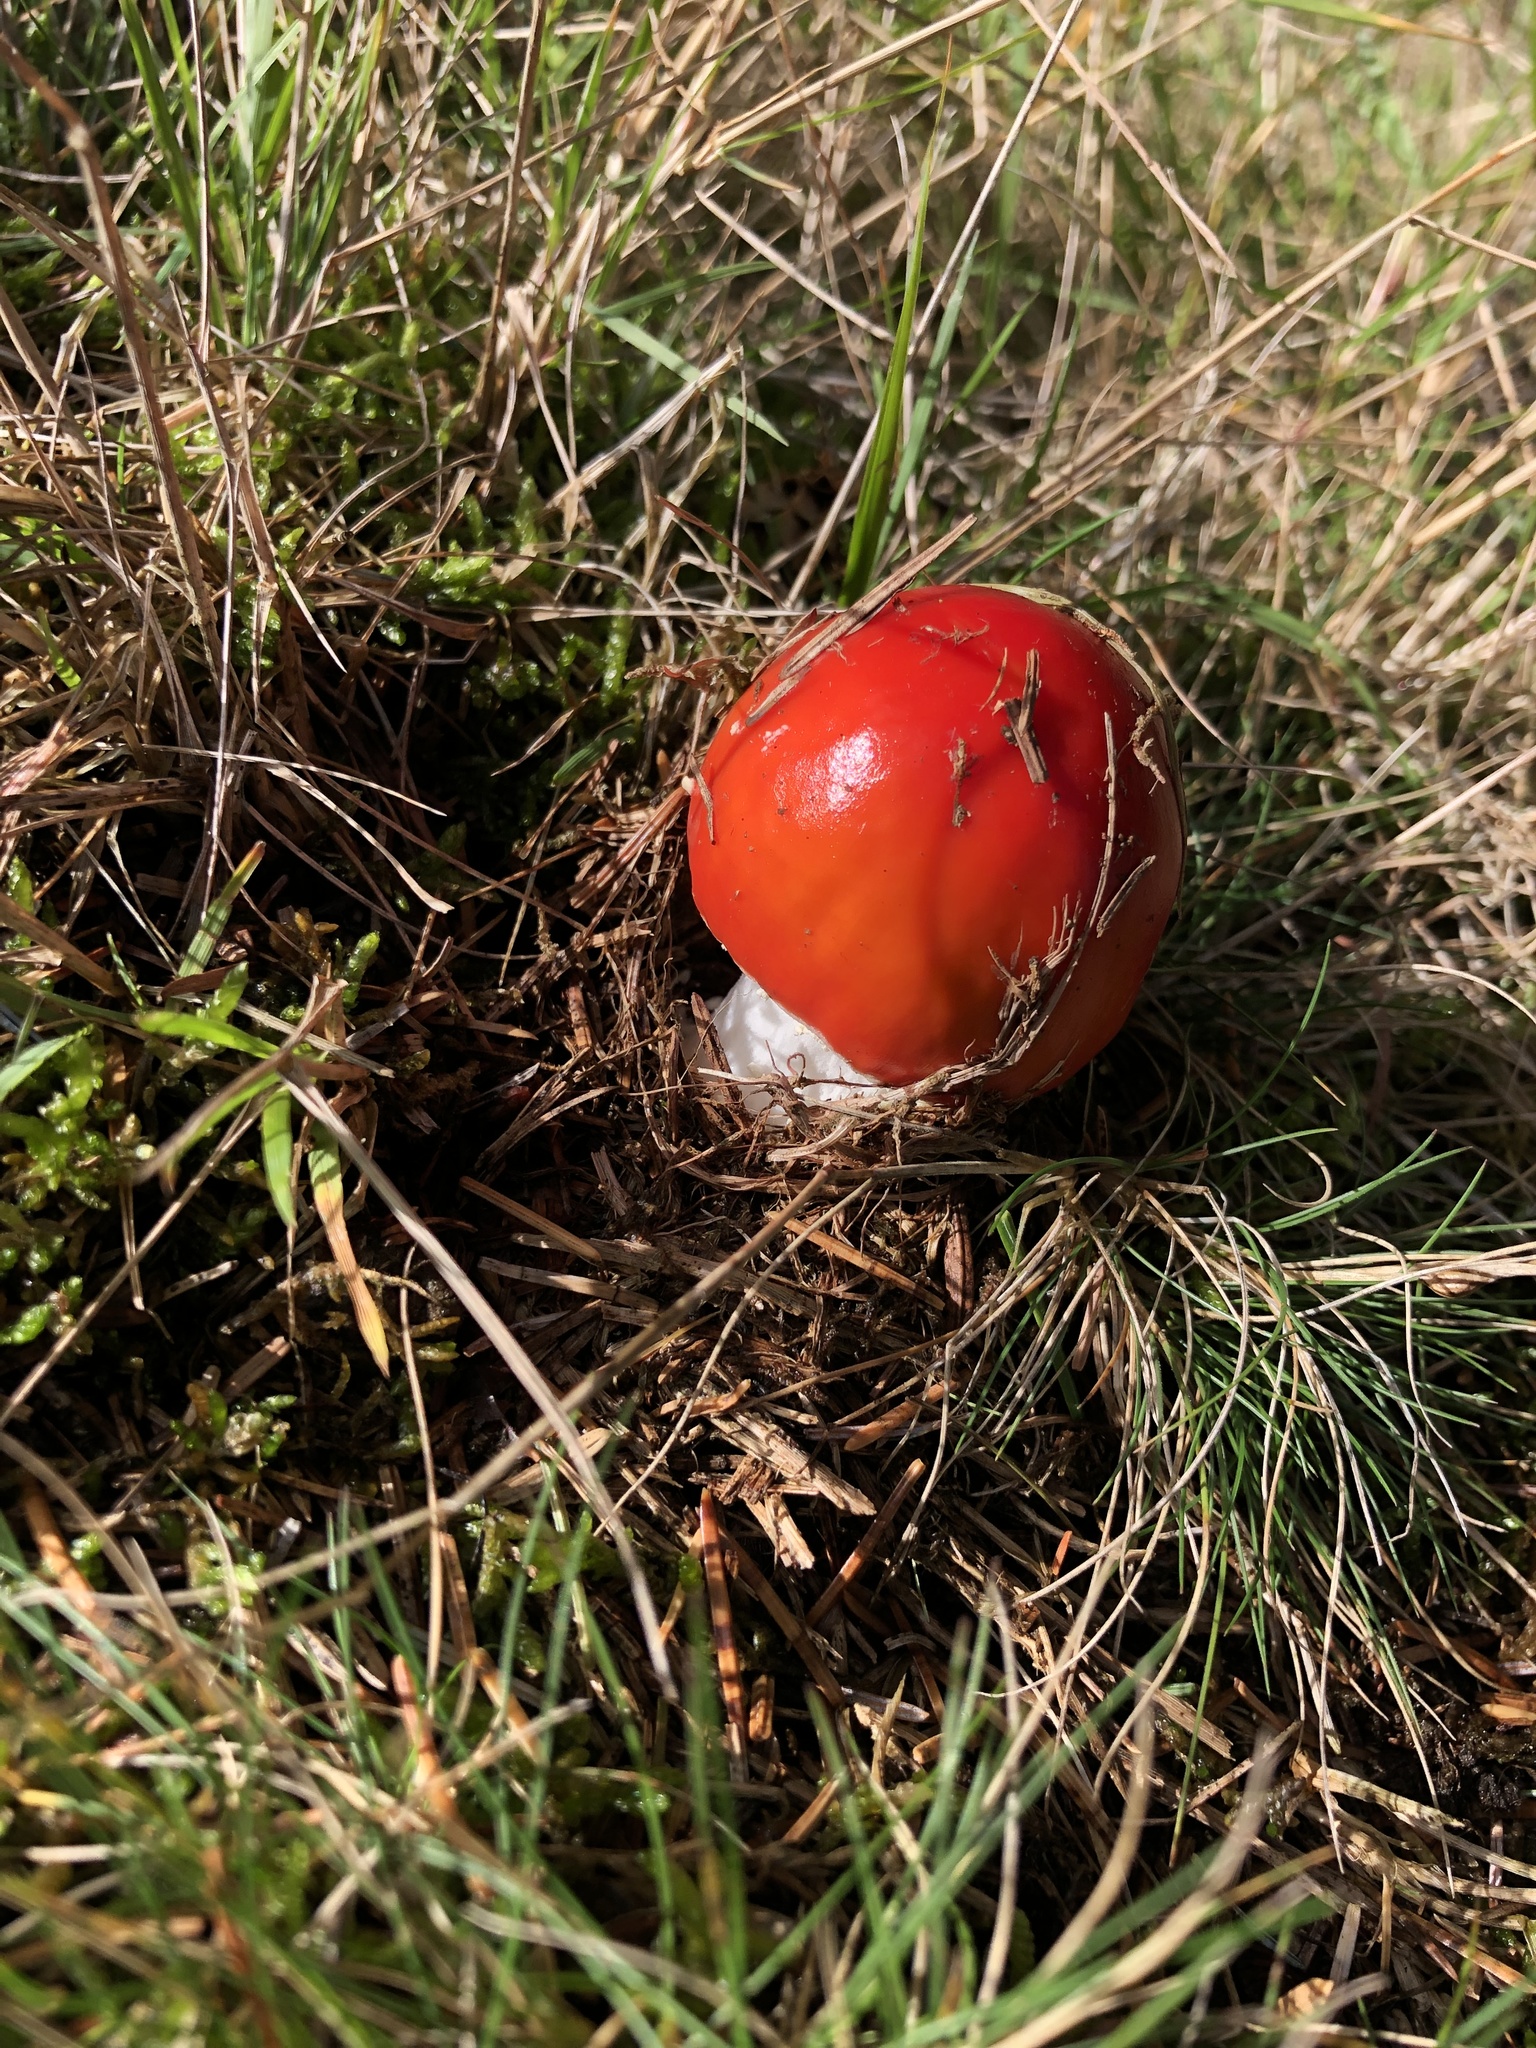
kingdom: Fungi
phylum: Basidiomycota
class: Agaricomycetes
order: Agaricales
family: Amanitaceae
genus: Amanita
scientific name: Amanita muscaria
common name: Fly agaric
